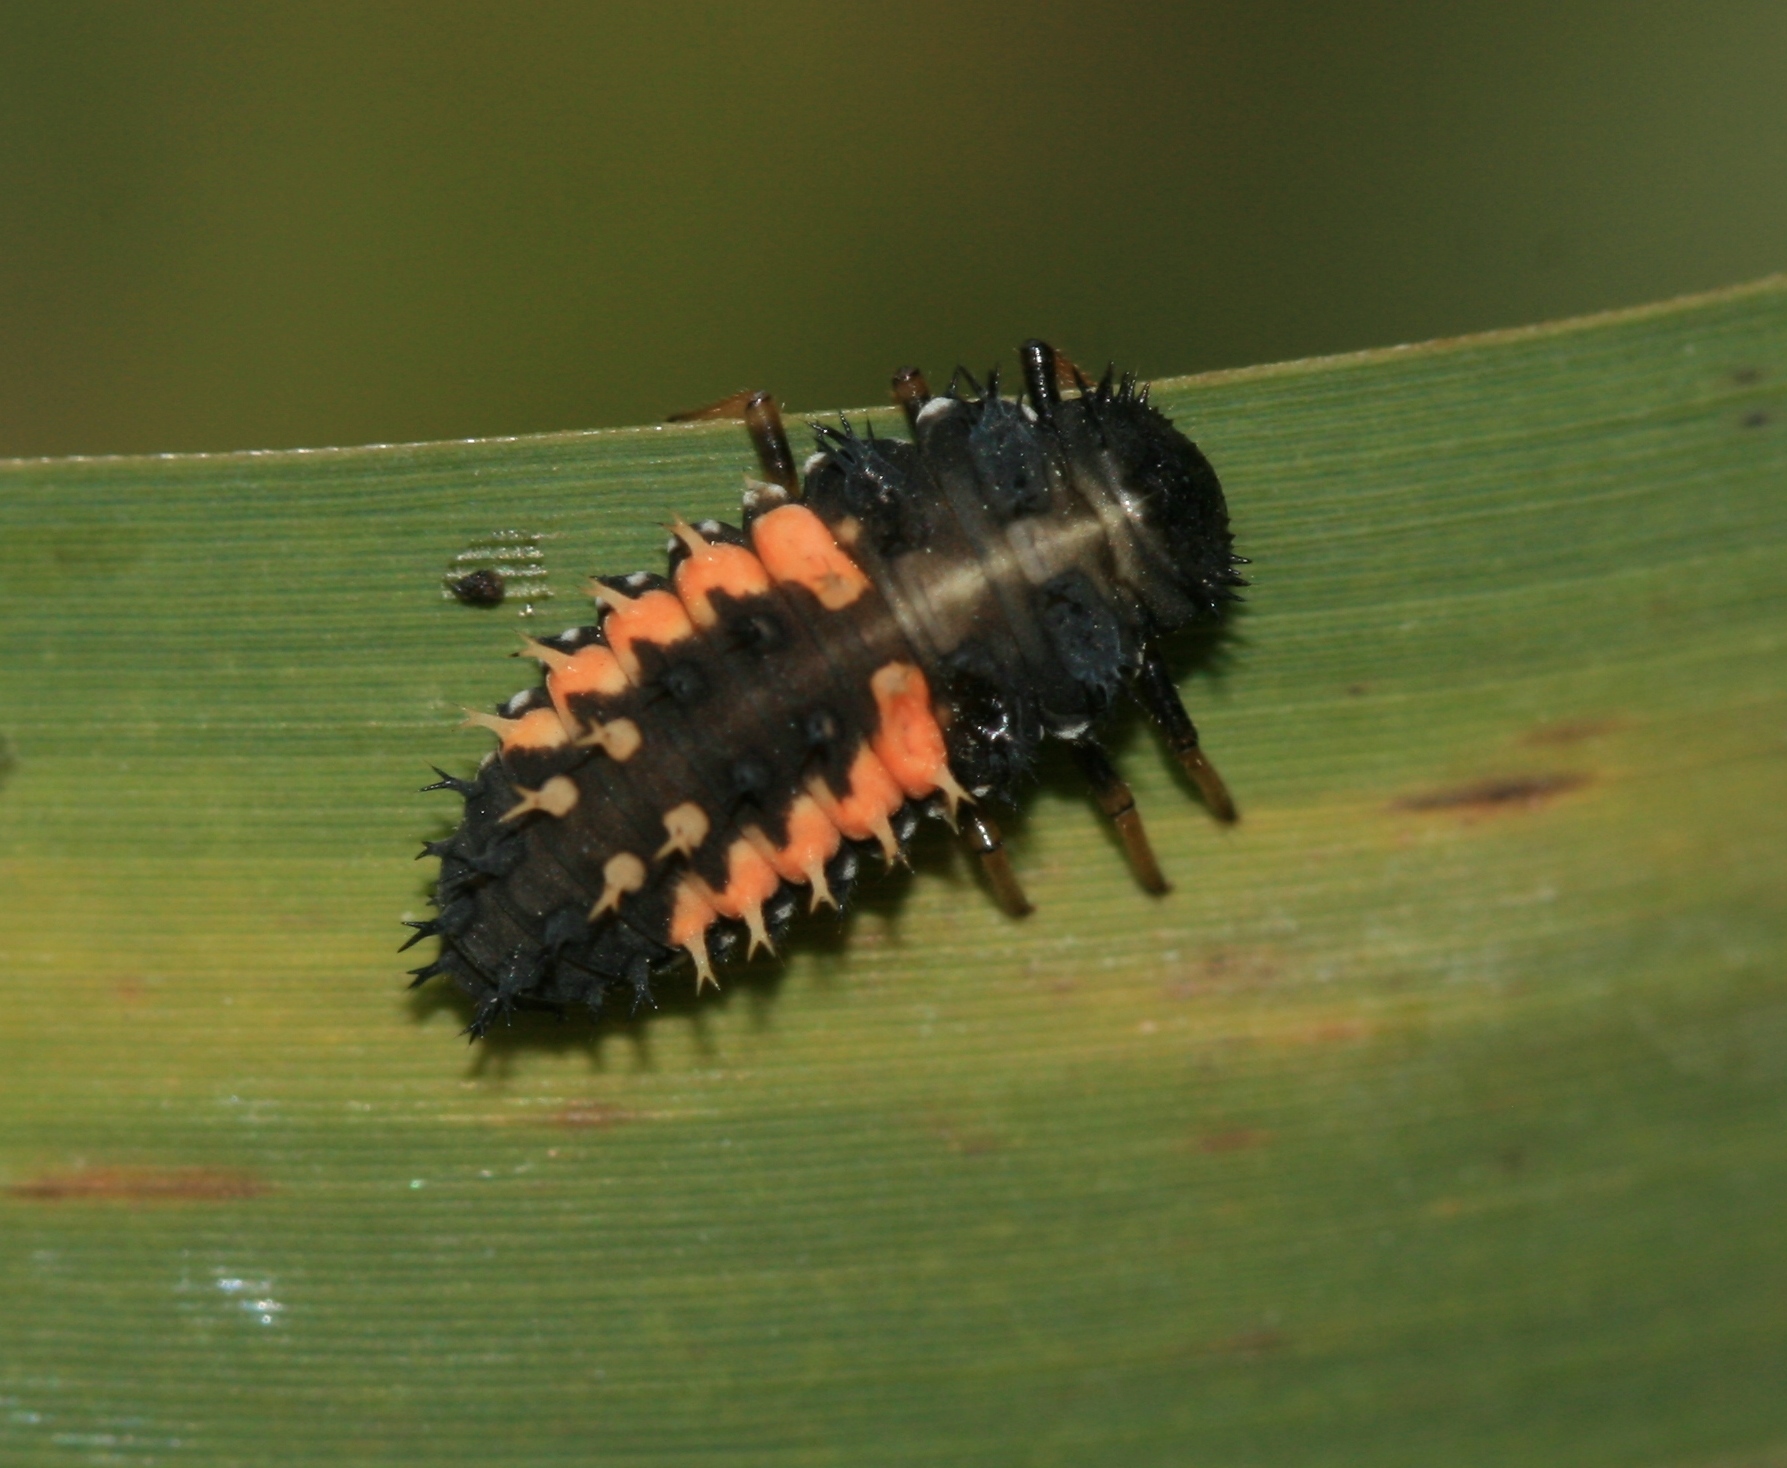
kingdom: Animalia
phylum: Arthropoda
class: Insecta
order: Coleoptera
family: Coccinellidae
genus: Harmonia
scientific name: Harmonia axyridis
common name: Harlequin ladybird
